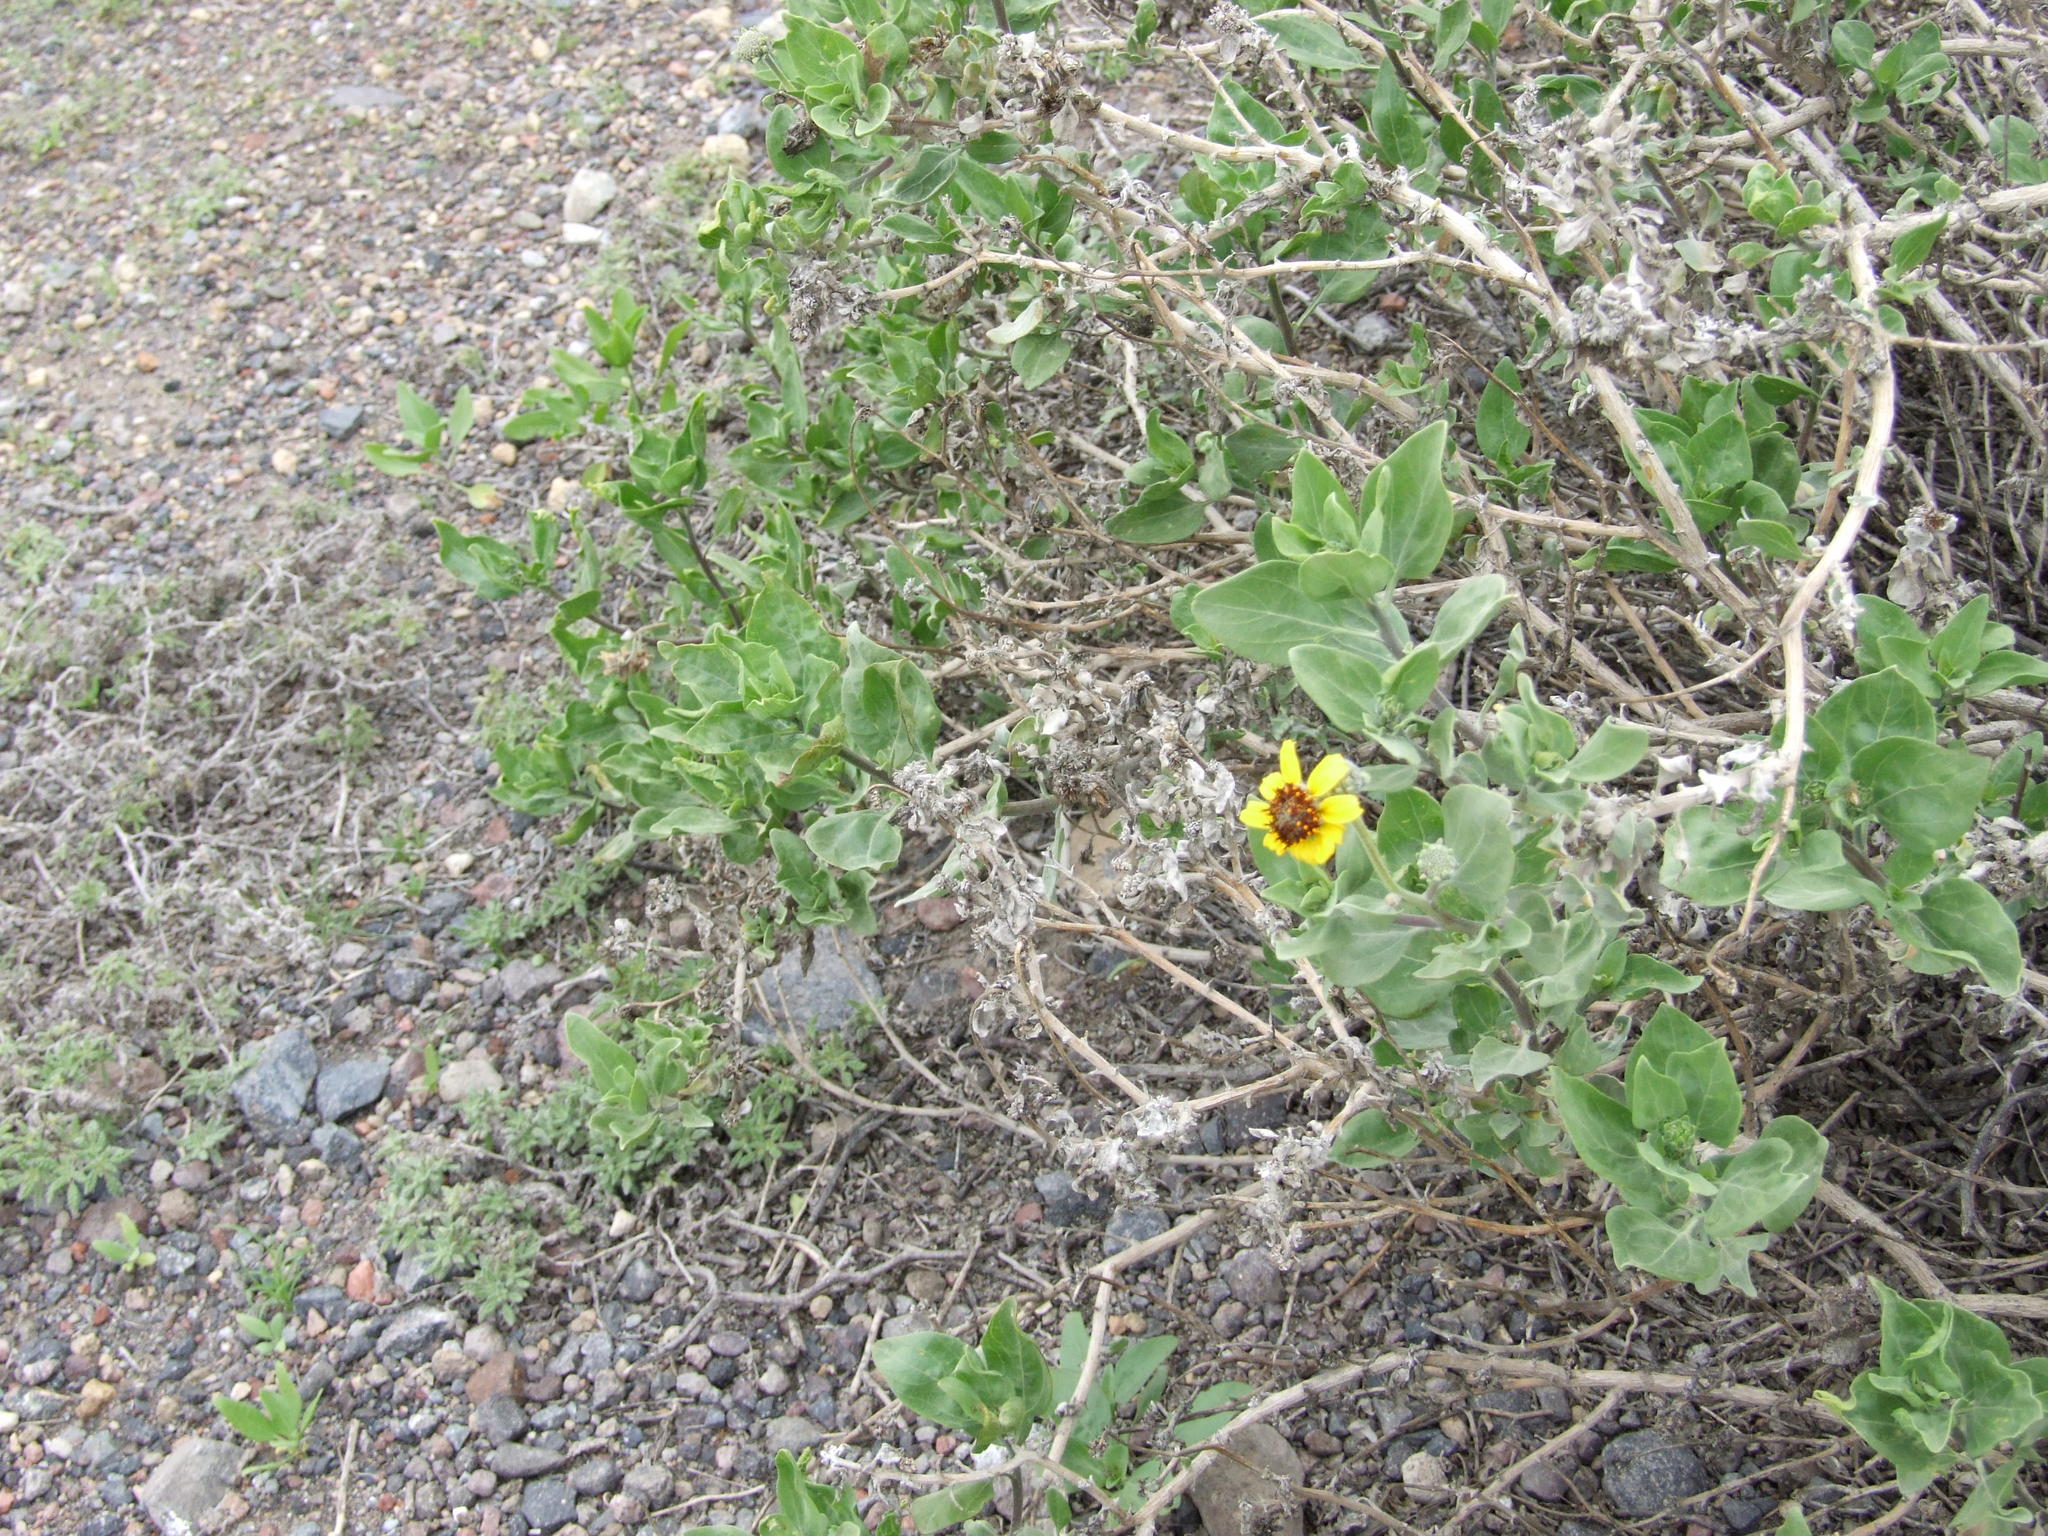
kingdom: Plantae
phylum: Tracheophyta
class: Magnoliopsida
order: Asterales
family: Asteraceae
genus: Encelia
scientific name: Encelia canescens
